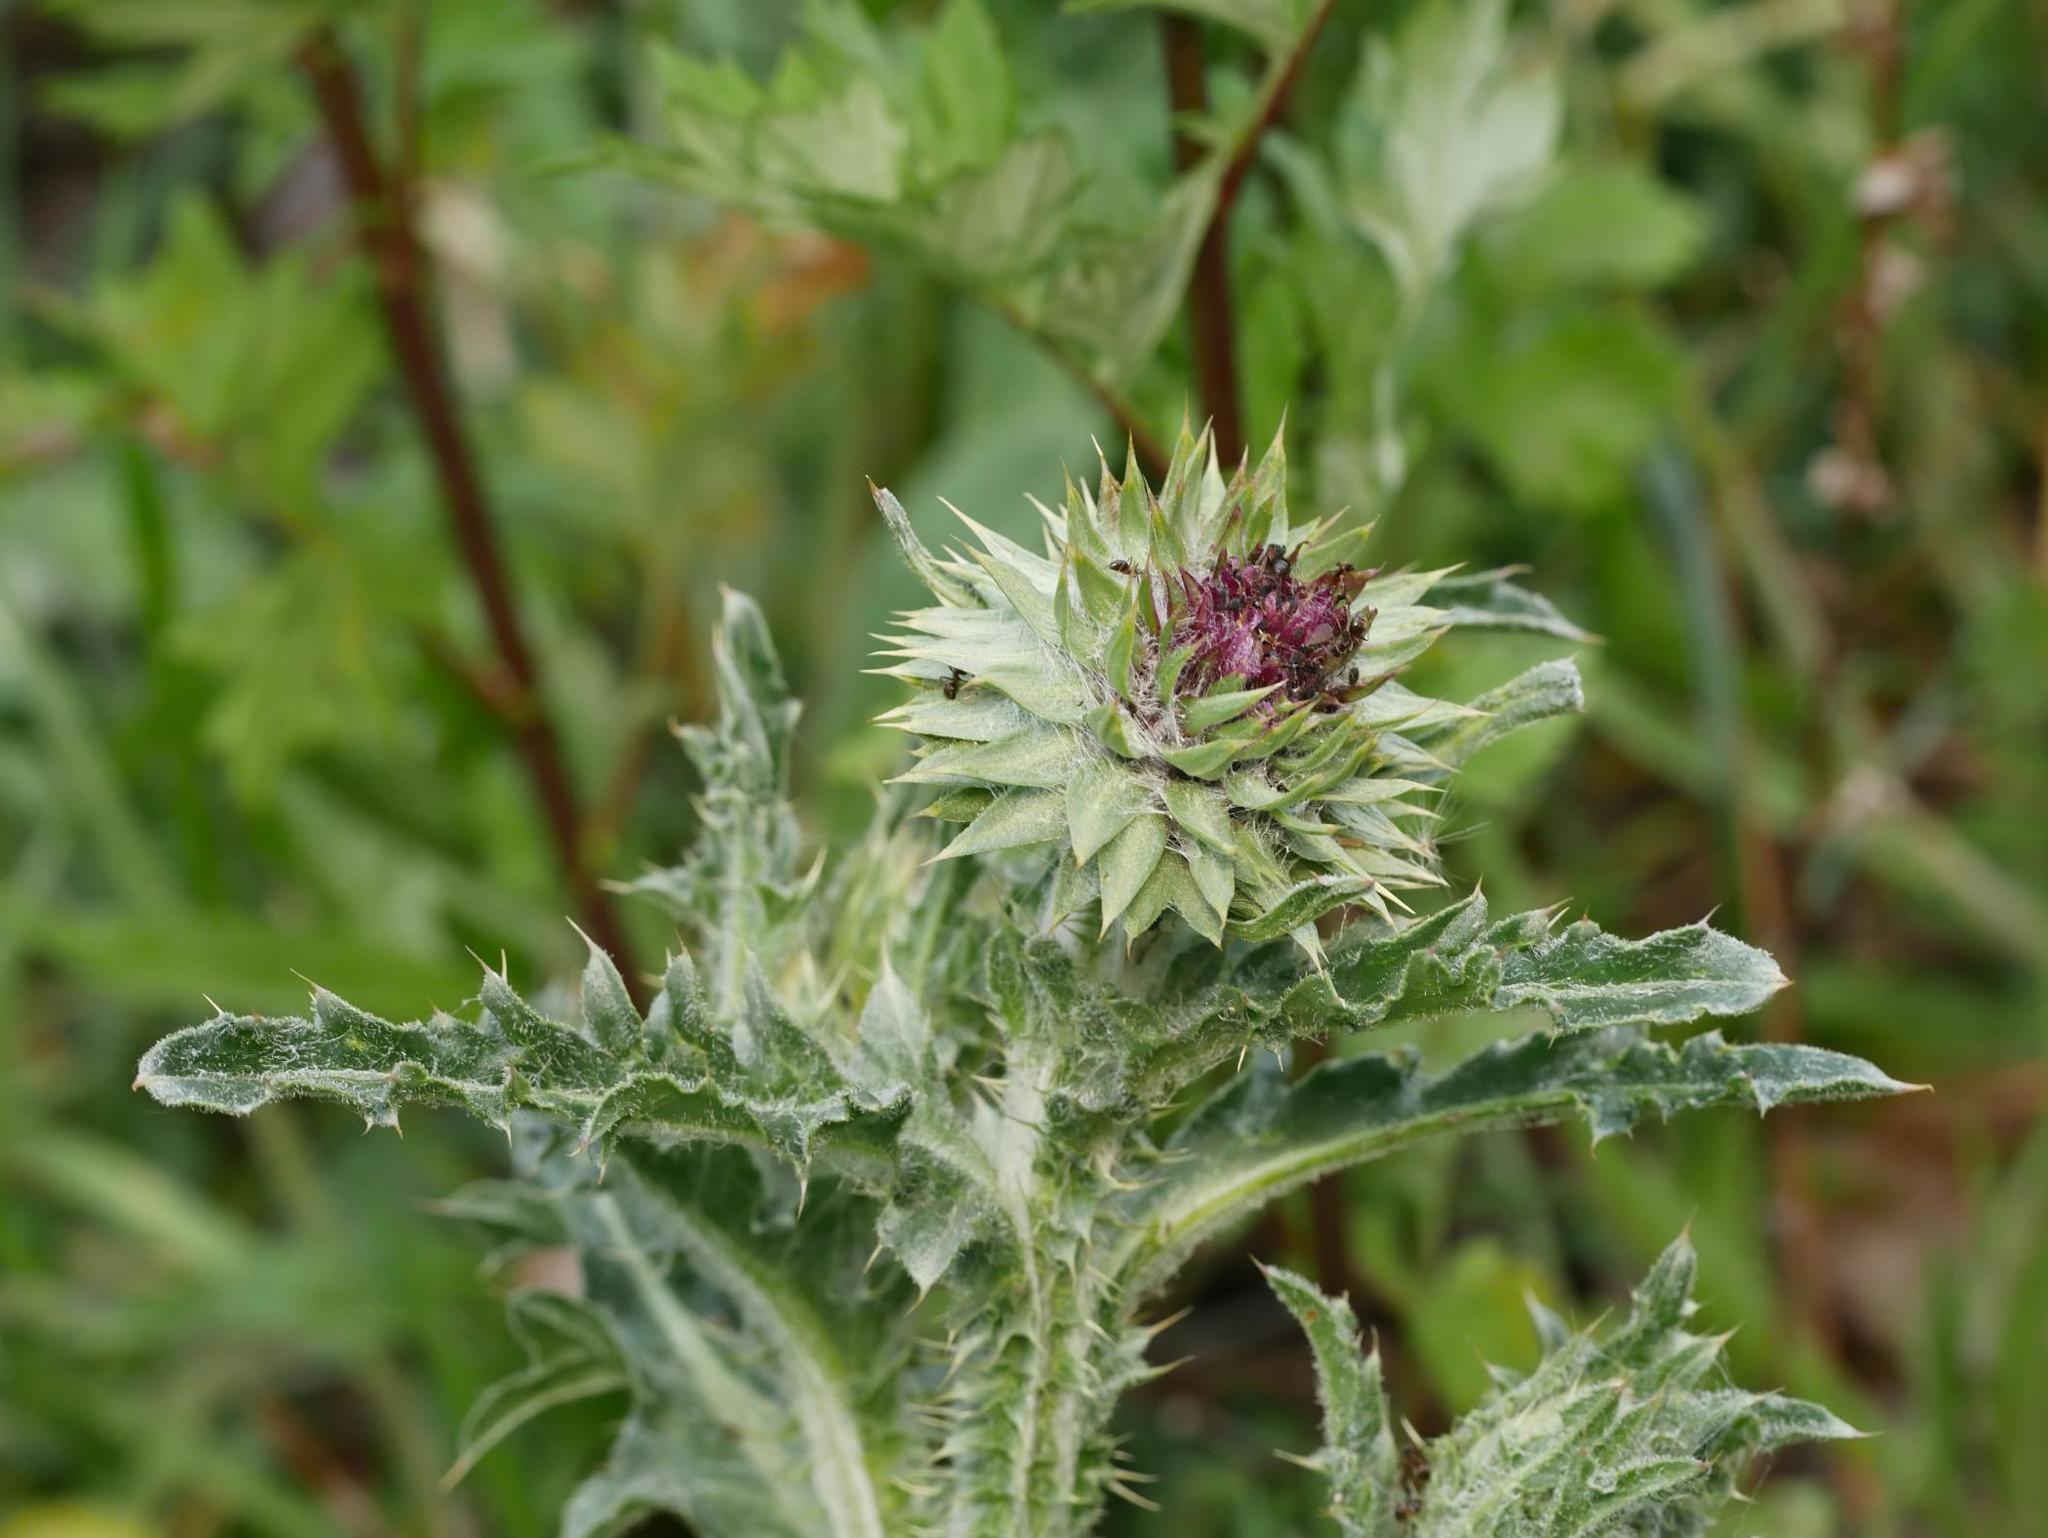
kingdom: Plantae
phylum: Tracheophyta
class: Magnoliopsida
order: Asterales
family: Asteraceae
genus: Carduus
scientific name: Carduus nutans
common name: Musk thistle
